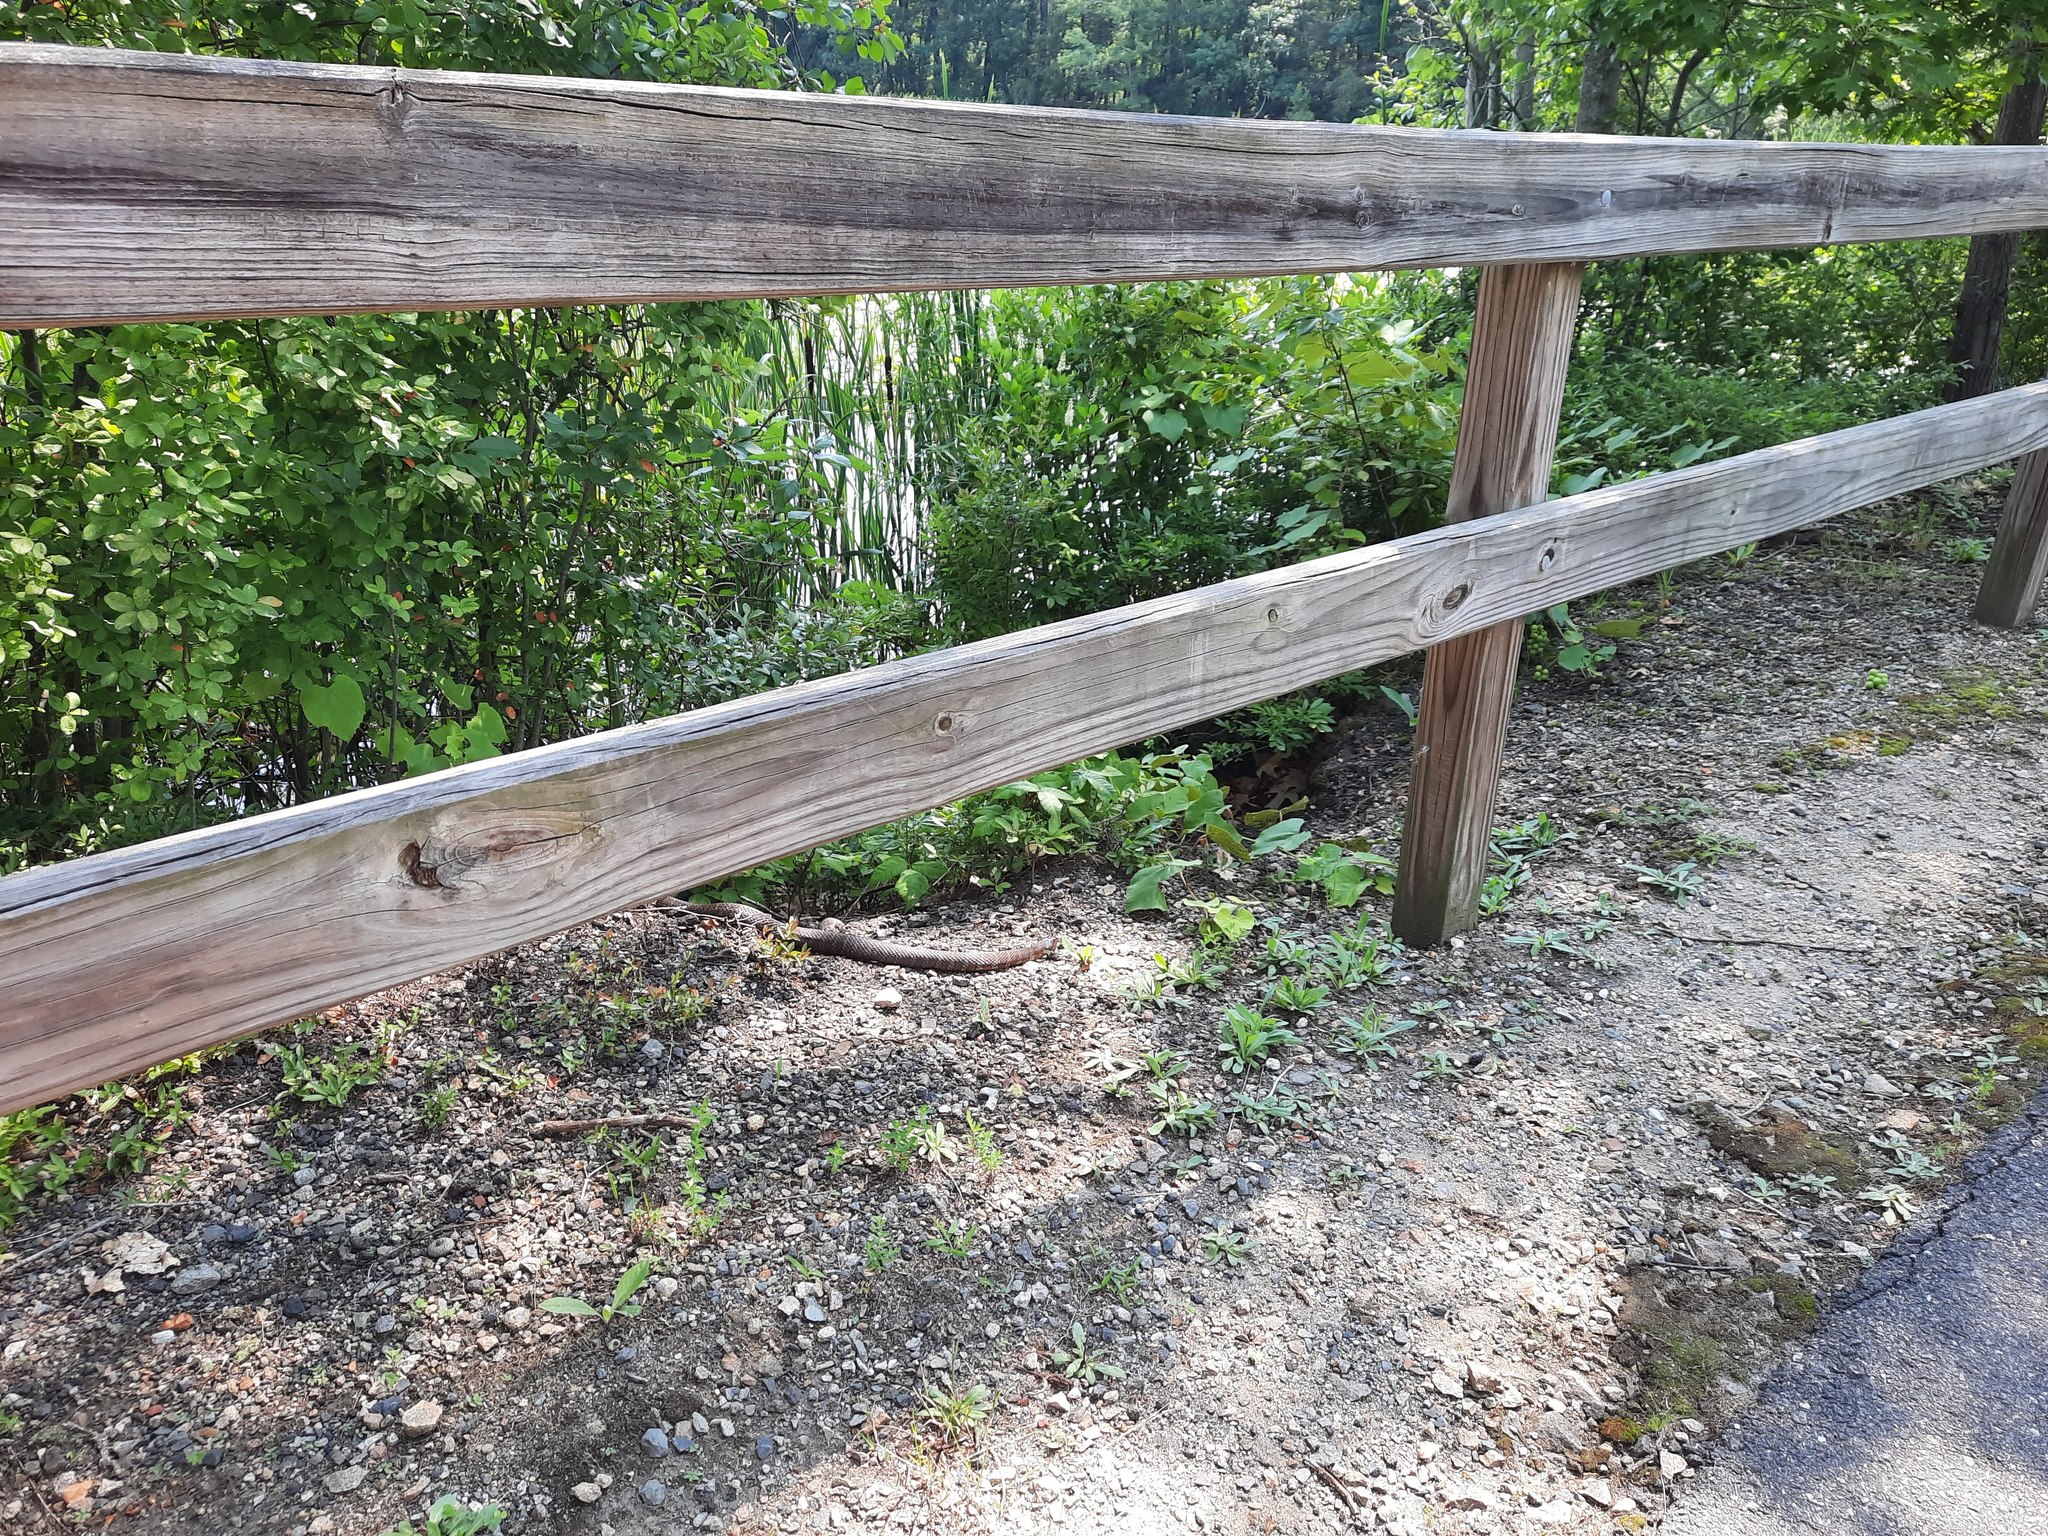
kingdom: Animalia
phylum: Chordata
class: Squamata
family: Colubridae
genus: Nerodia
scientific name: Nerodia sipedon
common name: Northern water snake
